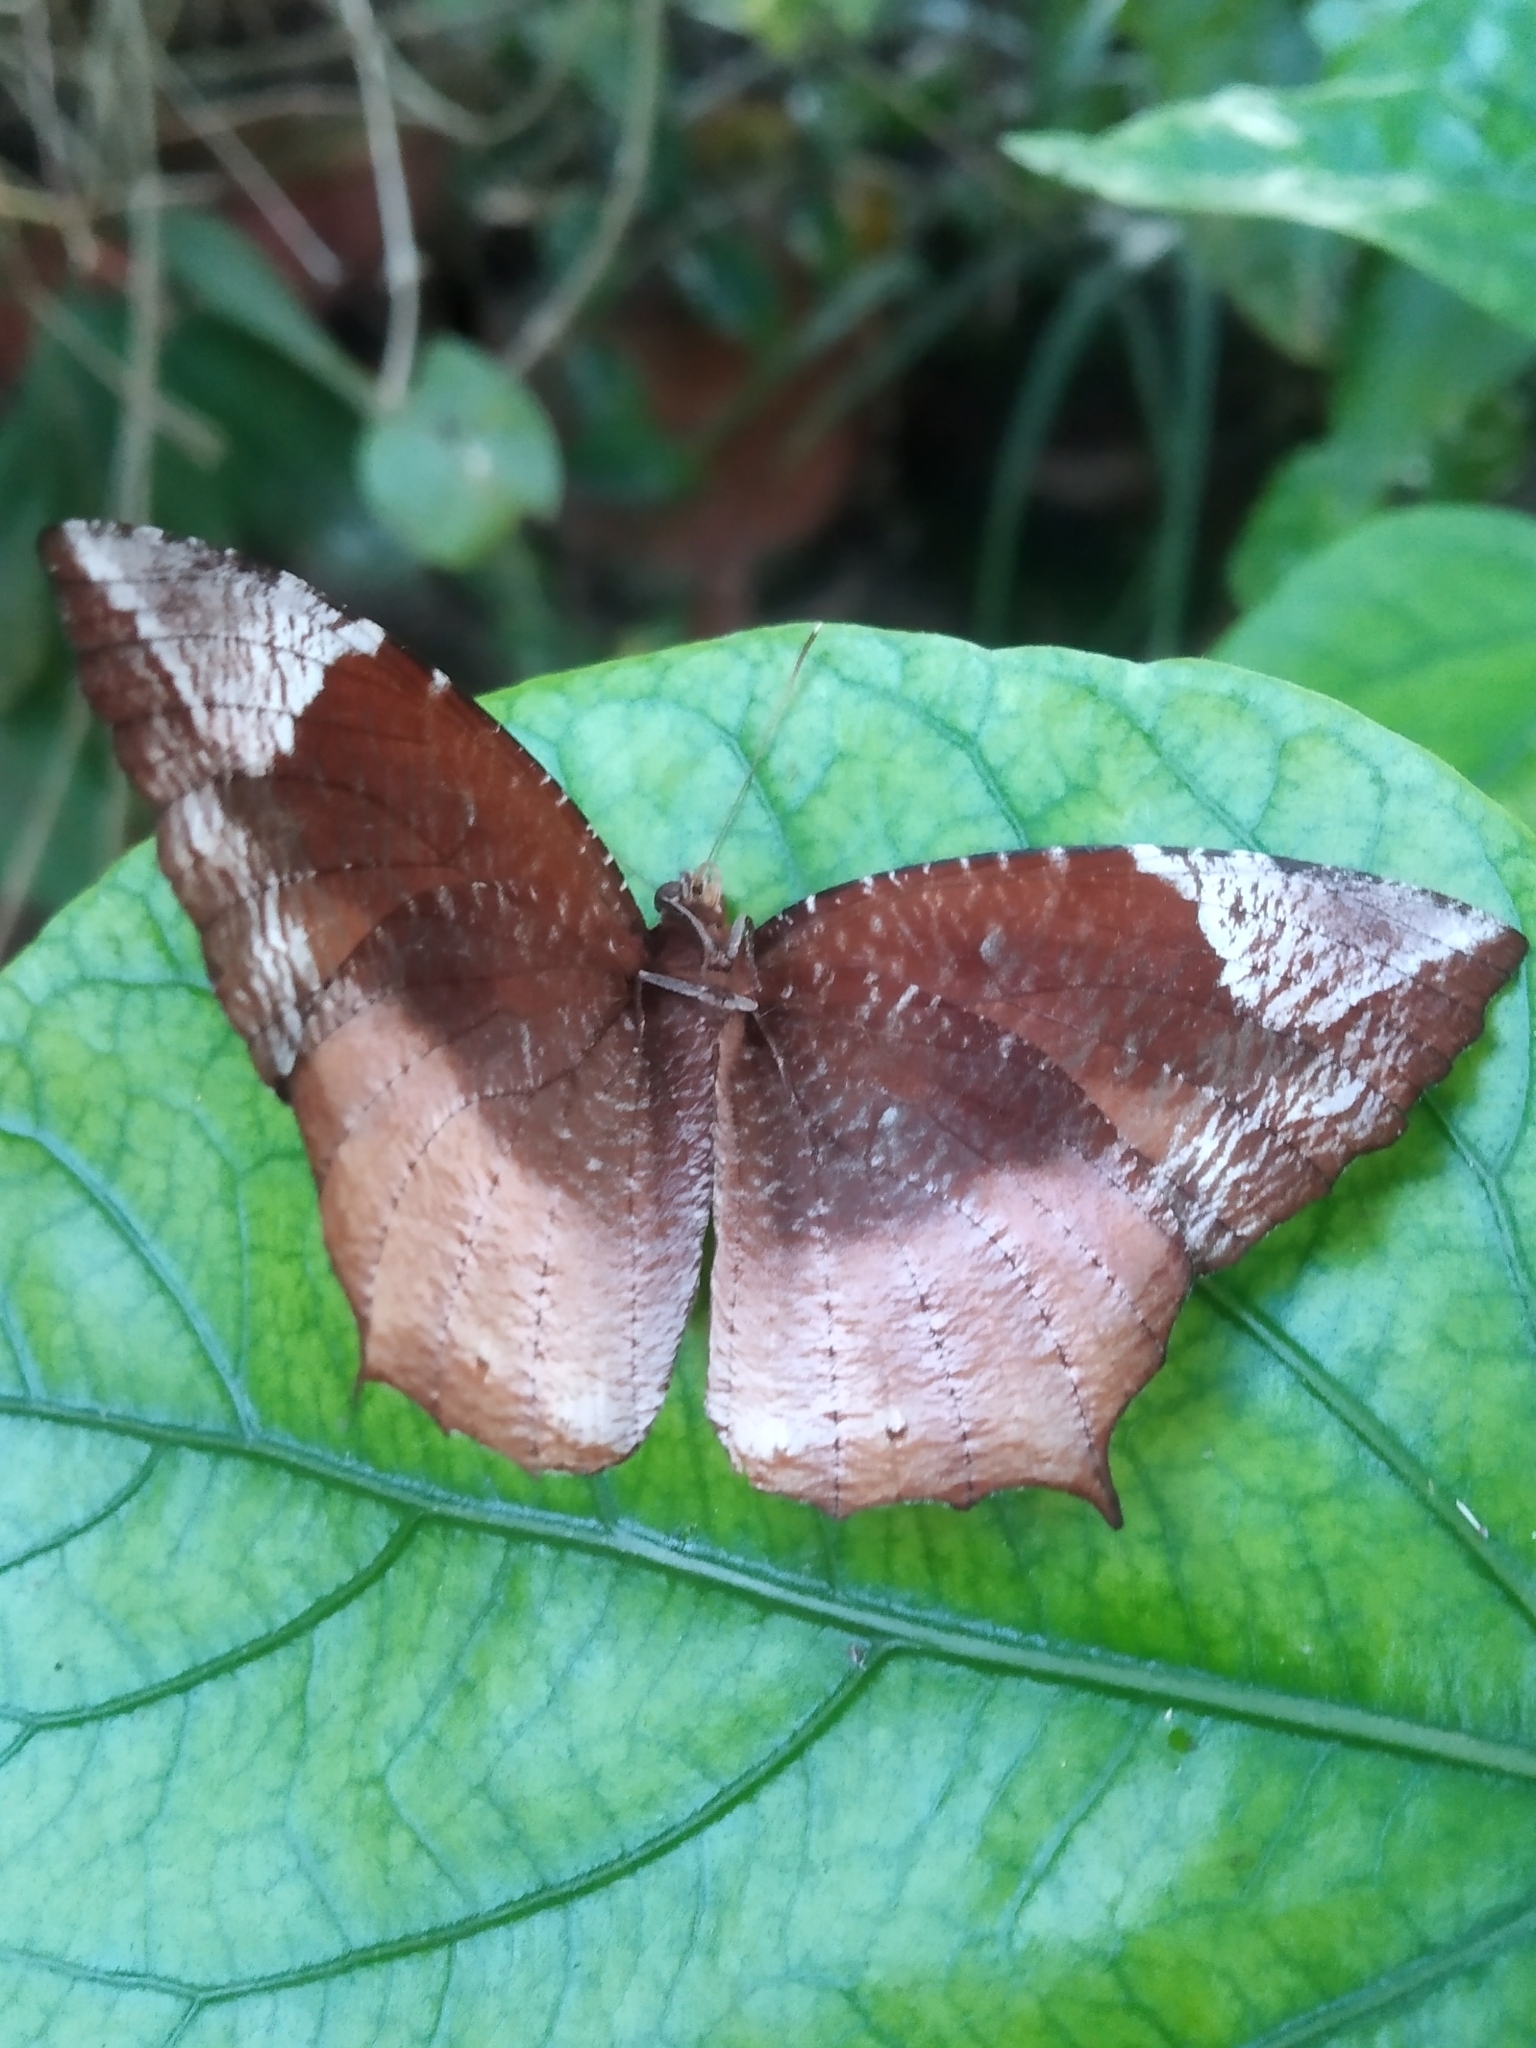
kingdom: Animalia
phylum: Arthropoda
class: Insecta
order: Lepidoptera
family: Nymphalidae
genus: Elymnias
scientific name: Elymnias caudata
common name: Tailed palmfly
